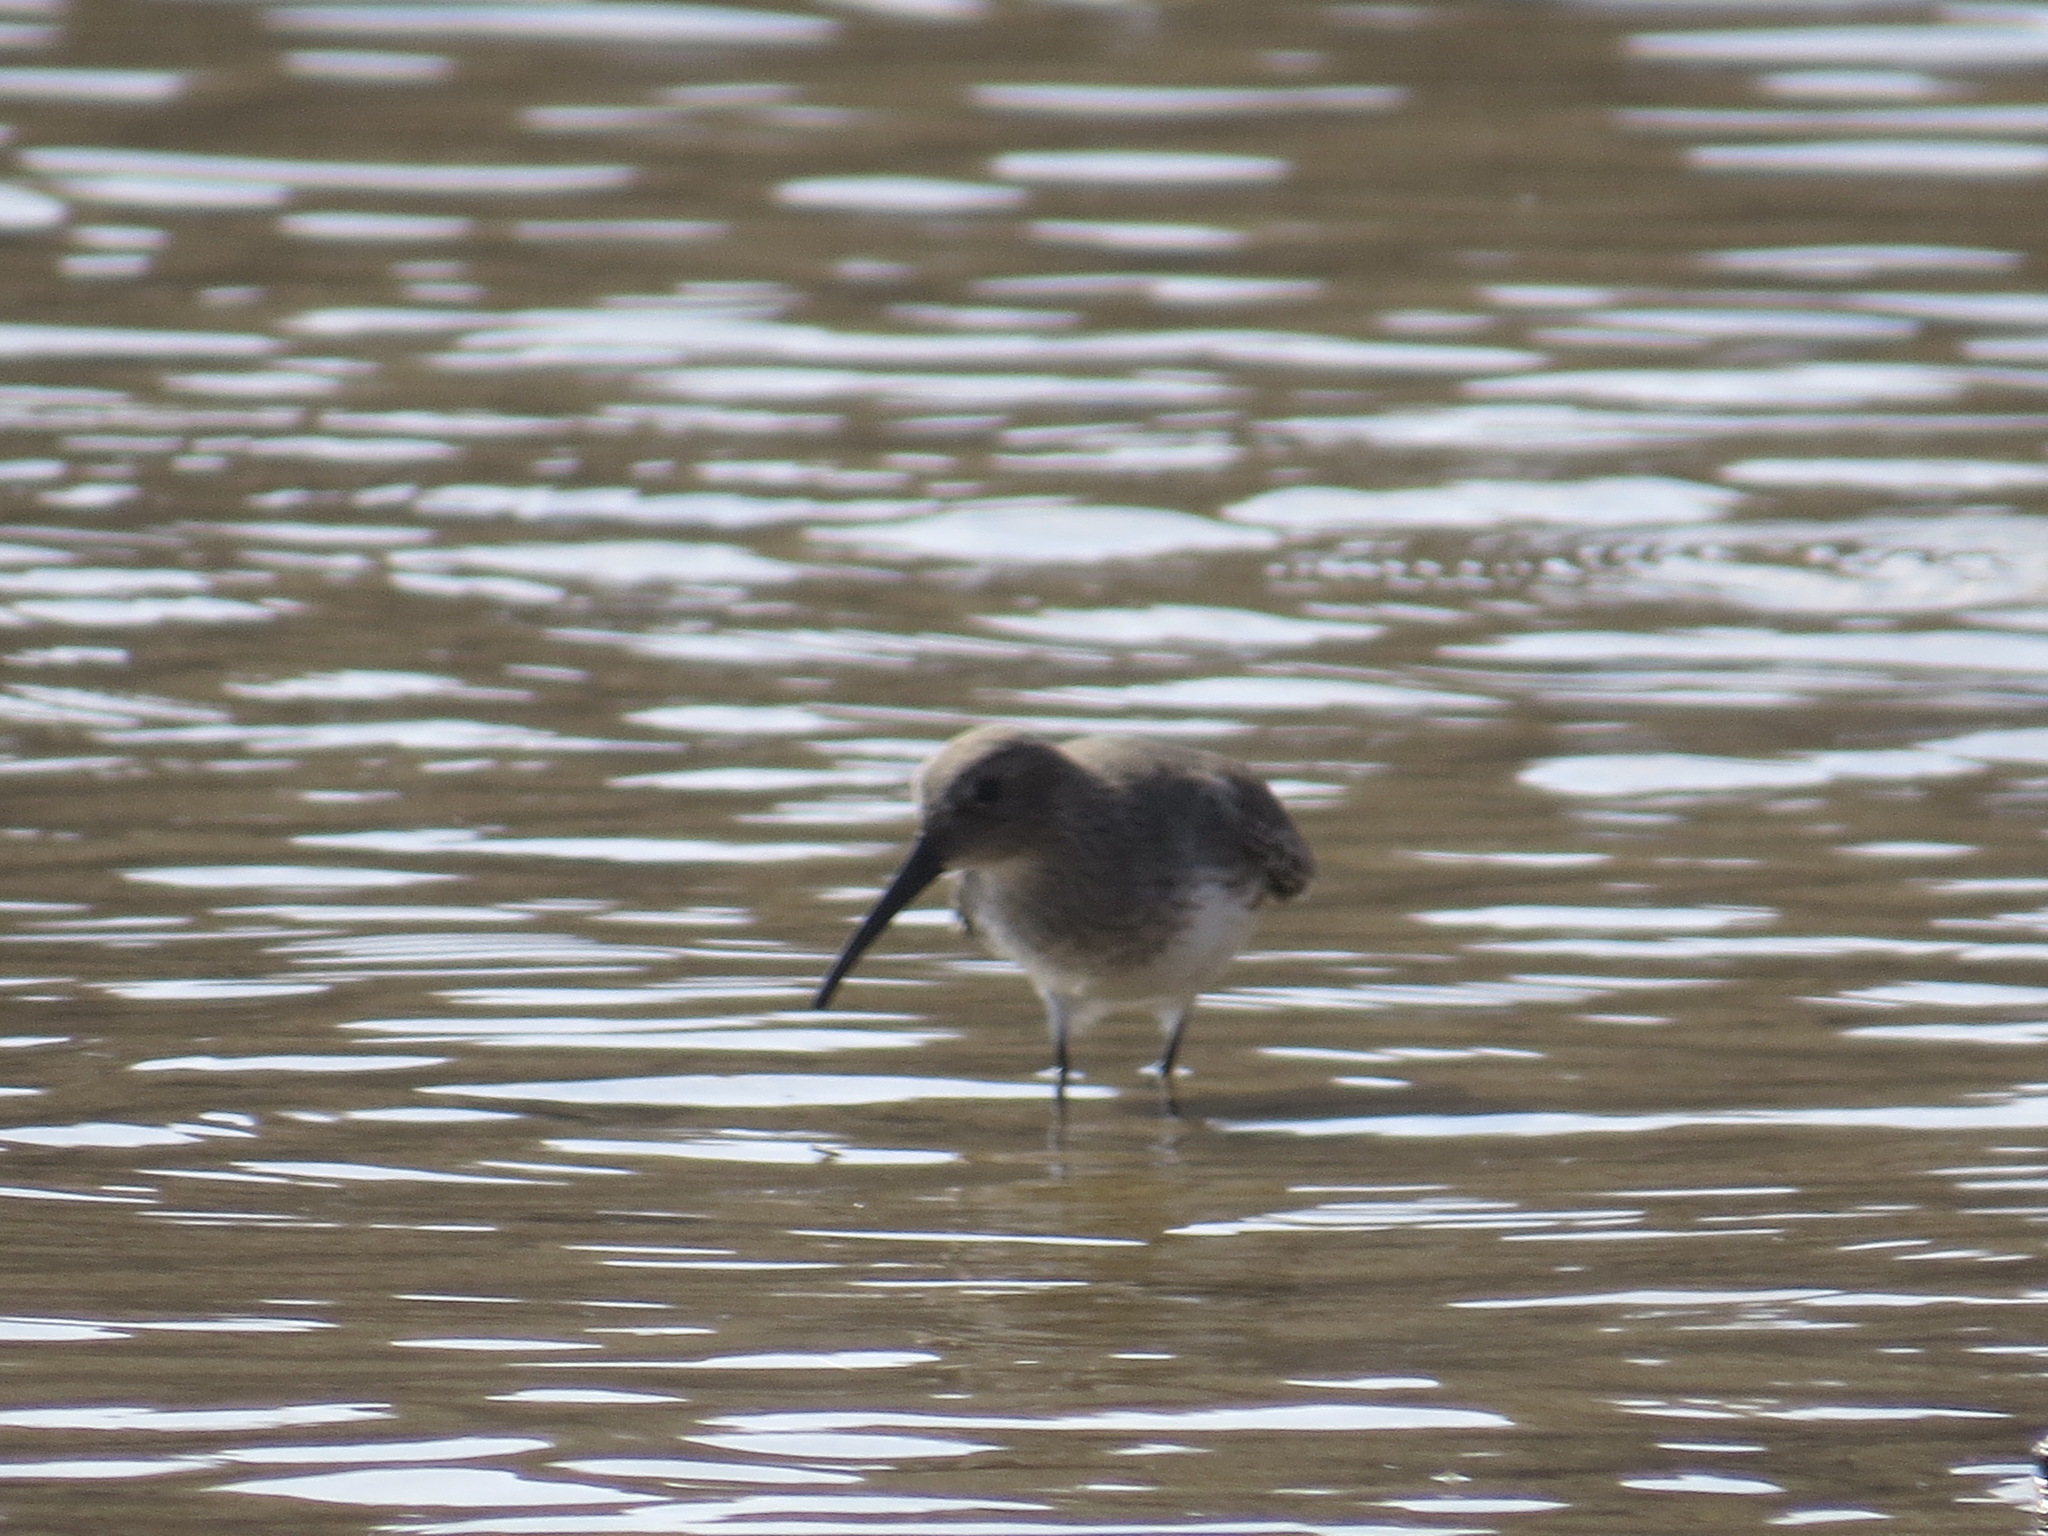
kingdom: Animalia
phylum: Chordata
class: Aves
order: Charadriiformes
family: Scolopacidae
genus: Calidris
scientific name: Calidris alpina
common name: Dunlin
